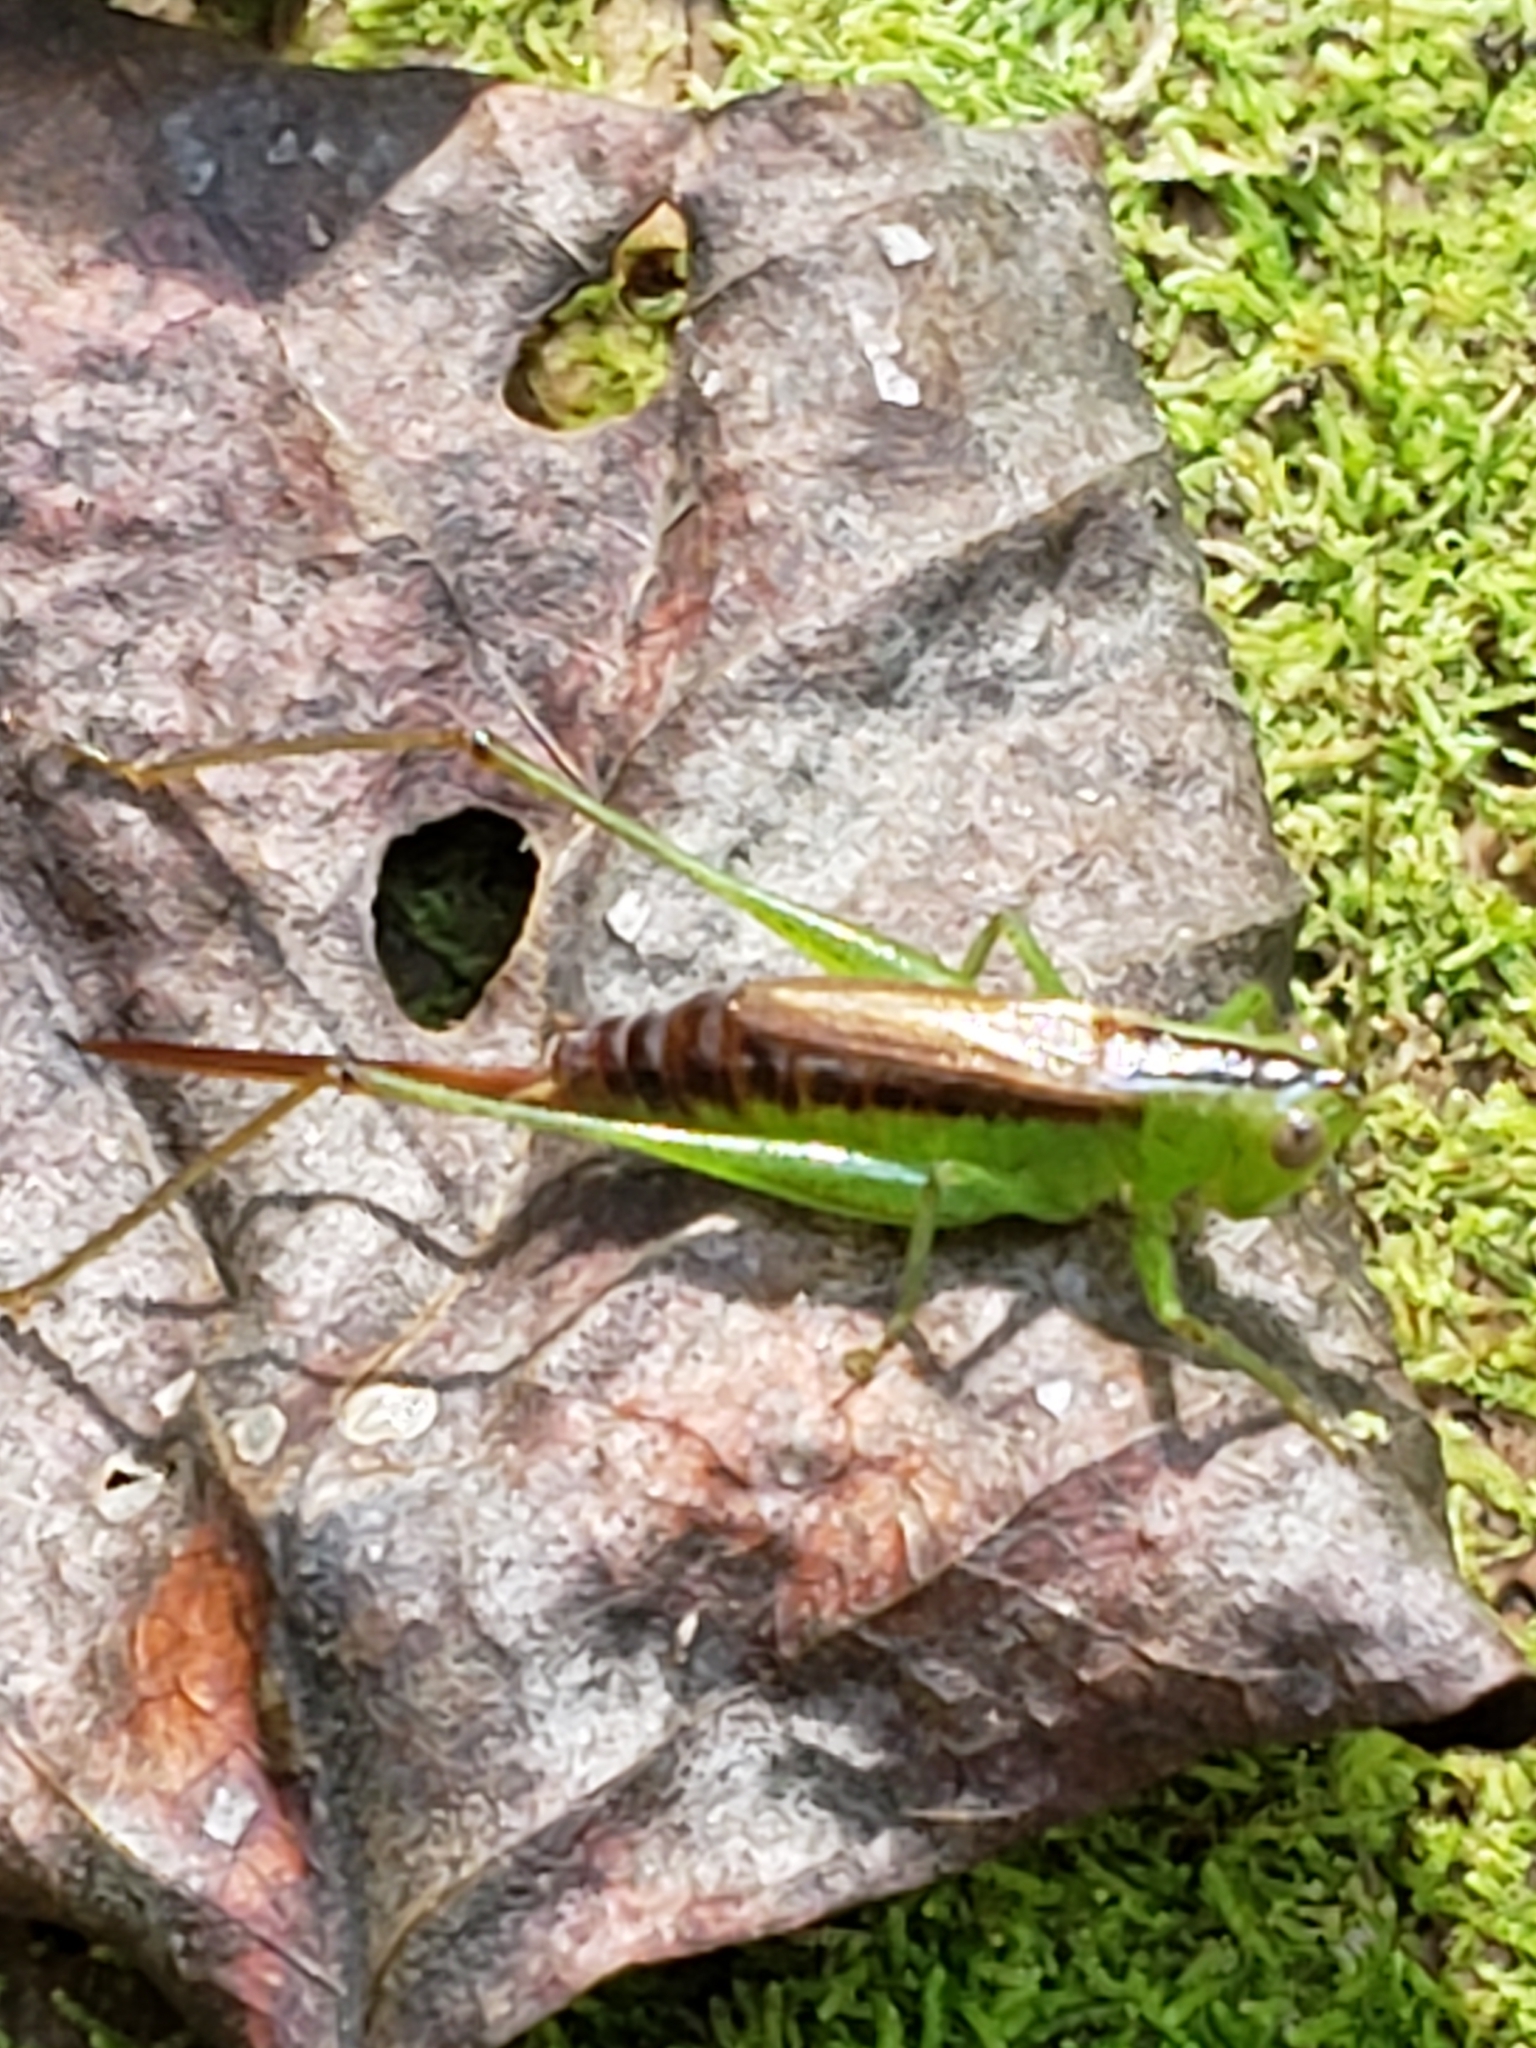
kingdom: Animalia
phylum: Arthropoda
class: Insecta
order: Orthoptera
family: Tettigoniidae
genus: Conocephalus
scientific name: Conocephalus brevipennis
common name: Short-winged meadow katydid
